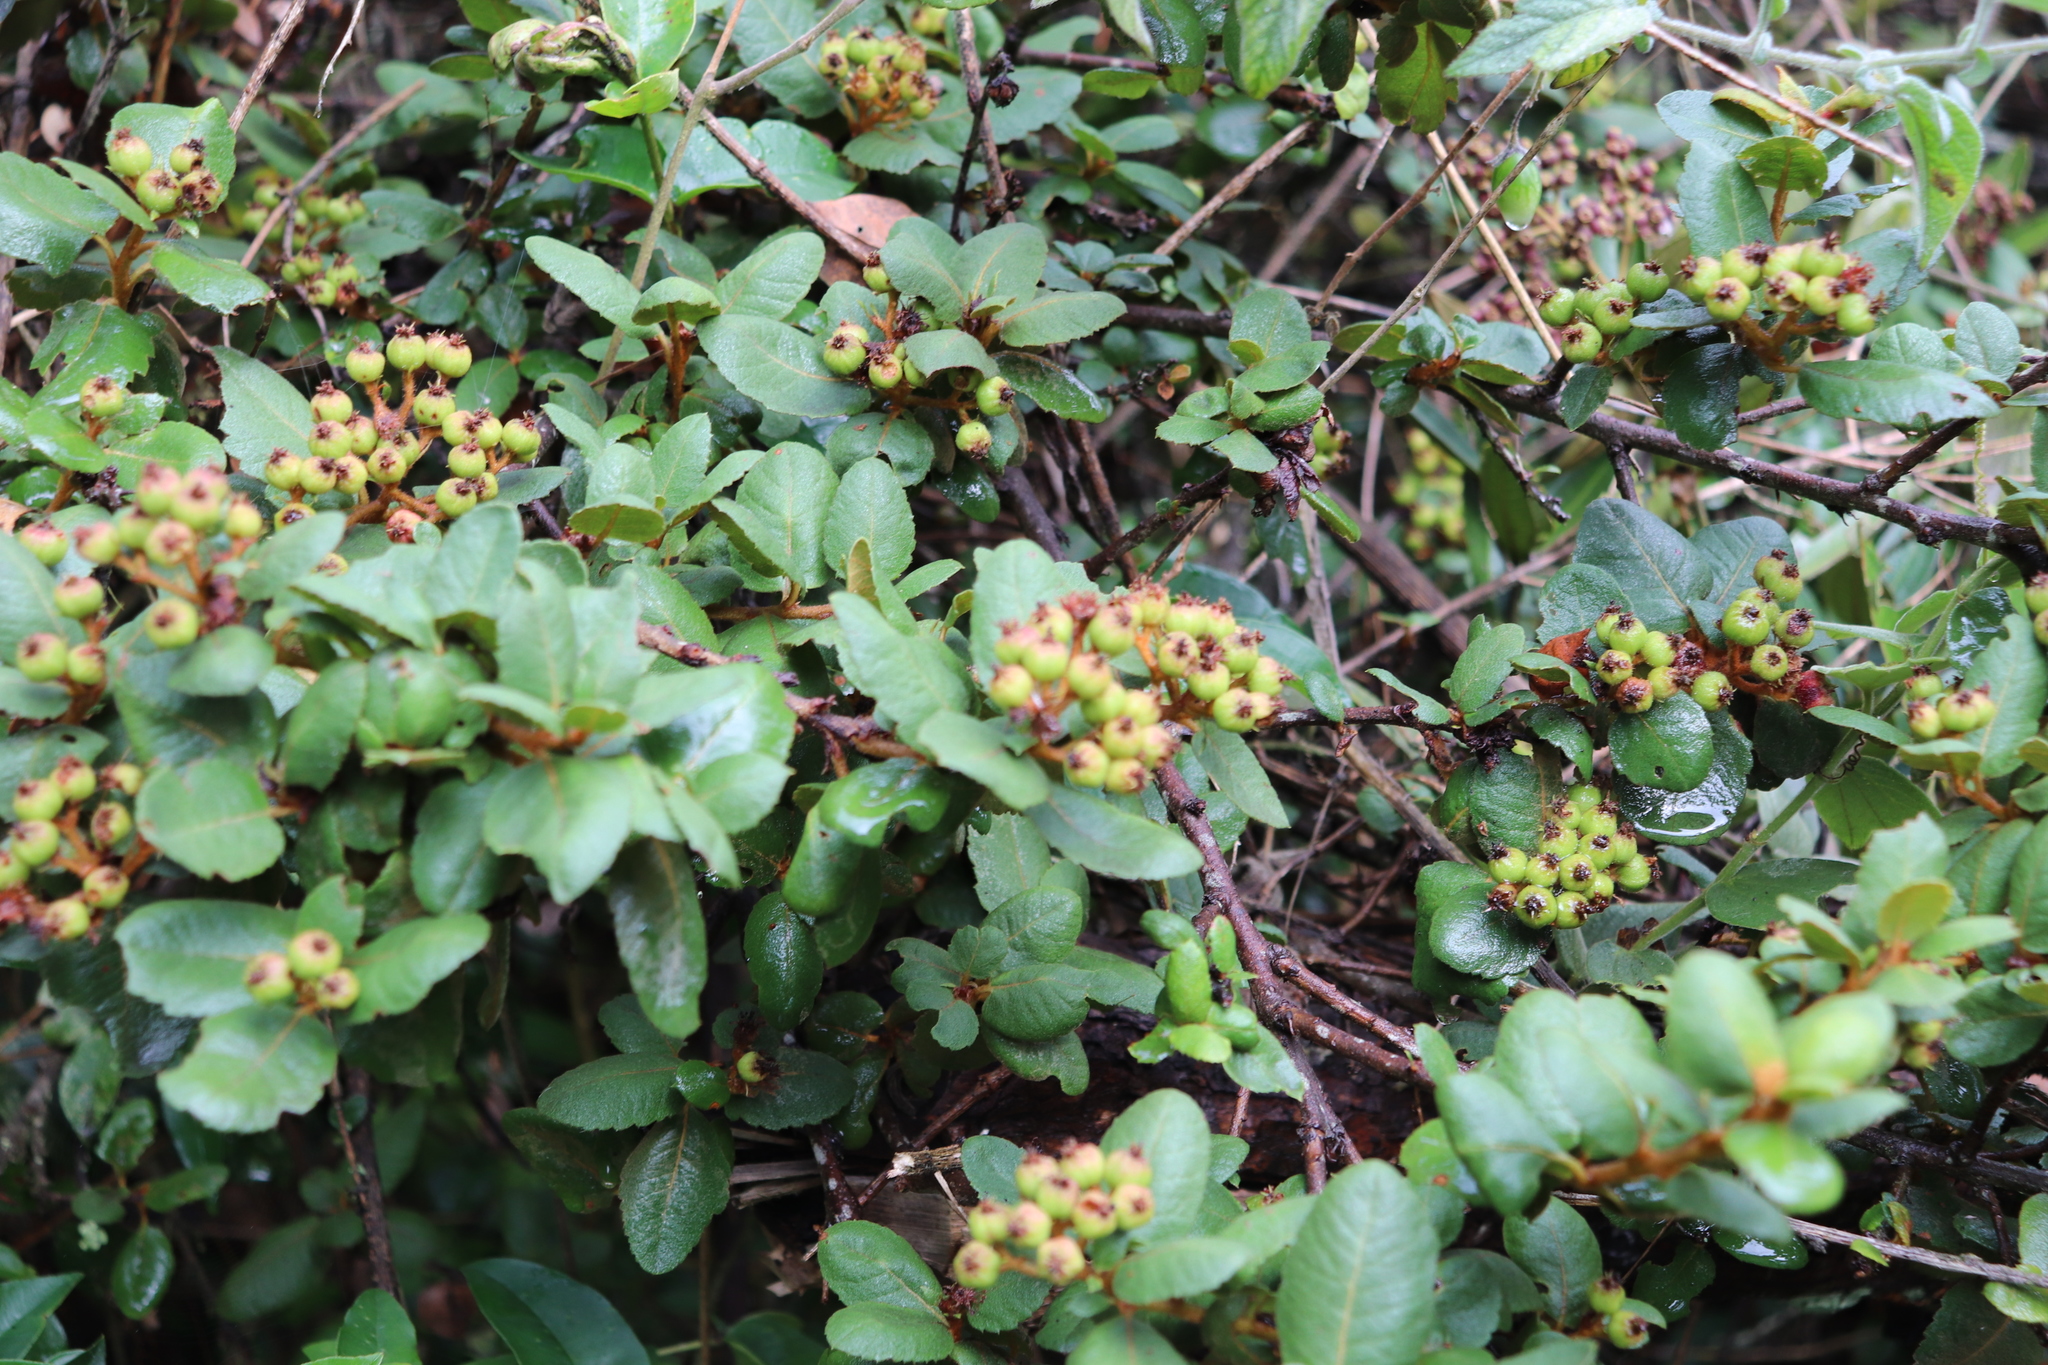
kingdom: Plantae
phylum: Tracheophyta
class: Magnoliopsida
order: Rosales
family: Rosaceae
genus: Hesperomeles
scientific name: Hesperomeles obtusifolia
